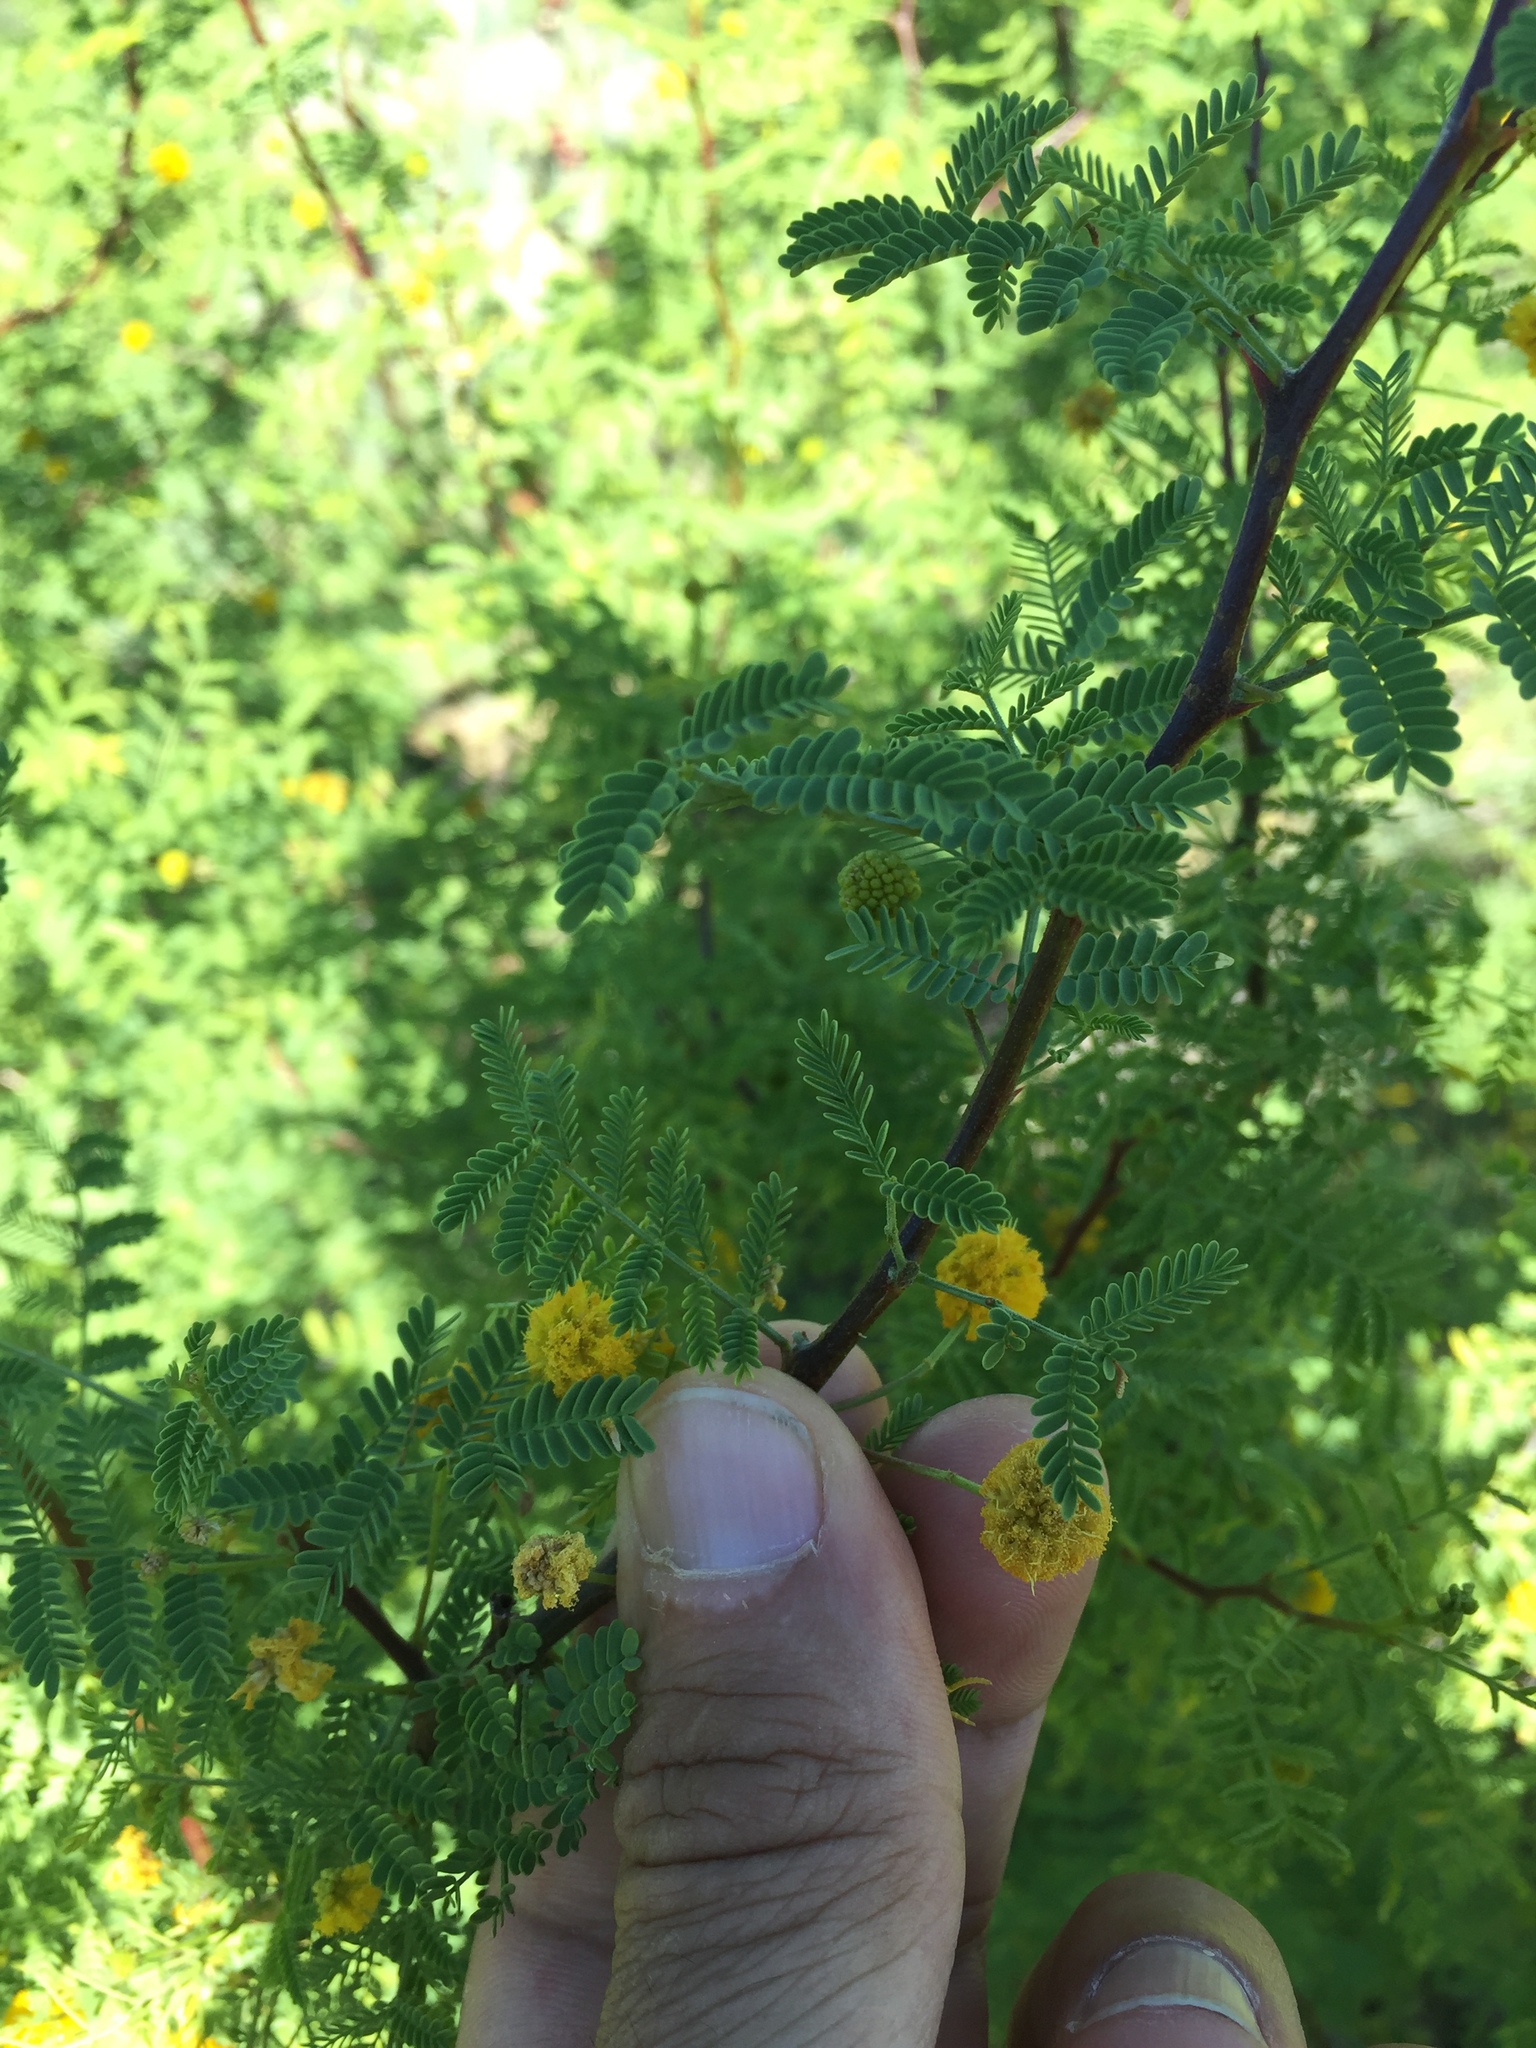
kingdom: Plantae
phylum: Tracheophyta
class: Magnoliopsida
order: Fabales
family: Fabaceae
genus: Vachellia
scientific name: Vachellia constricta
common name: Mescat acacia
